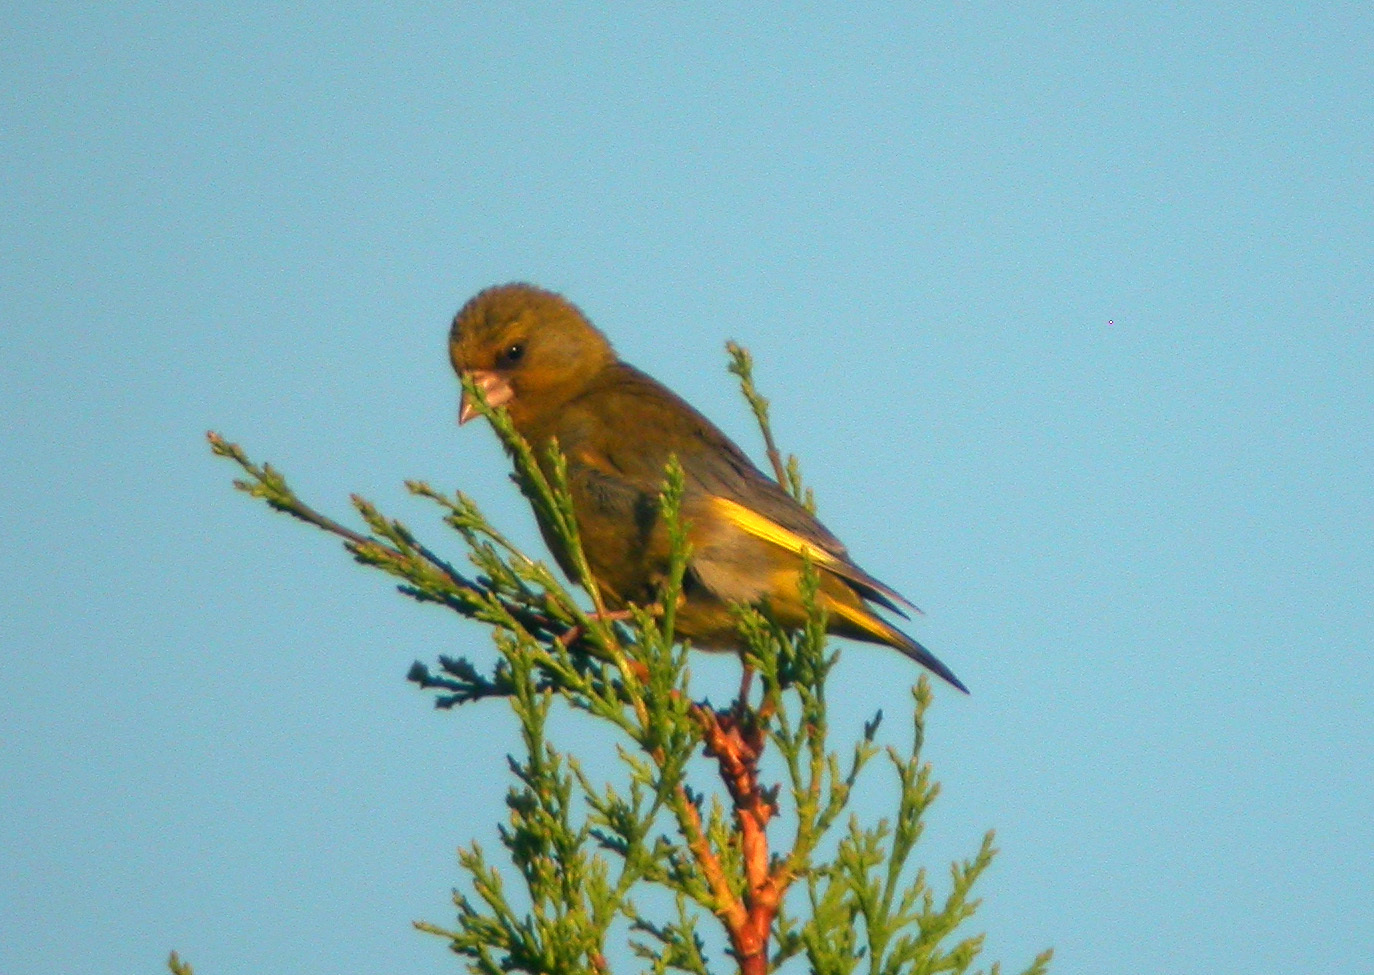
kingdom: Plantae
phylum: Tracheophyta
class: Liliopsida
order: Poales
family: Poaceae
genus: Chloris
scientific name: Chloris chloris
